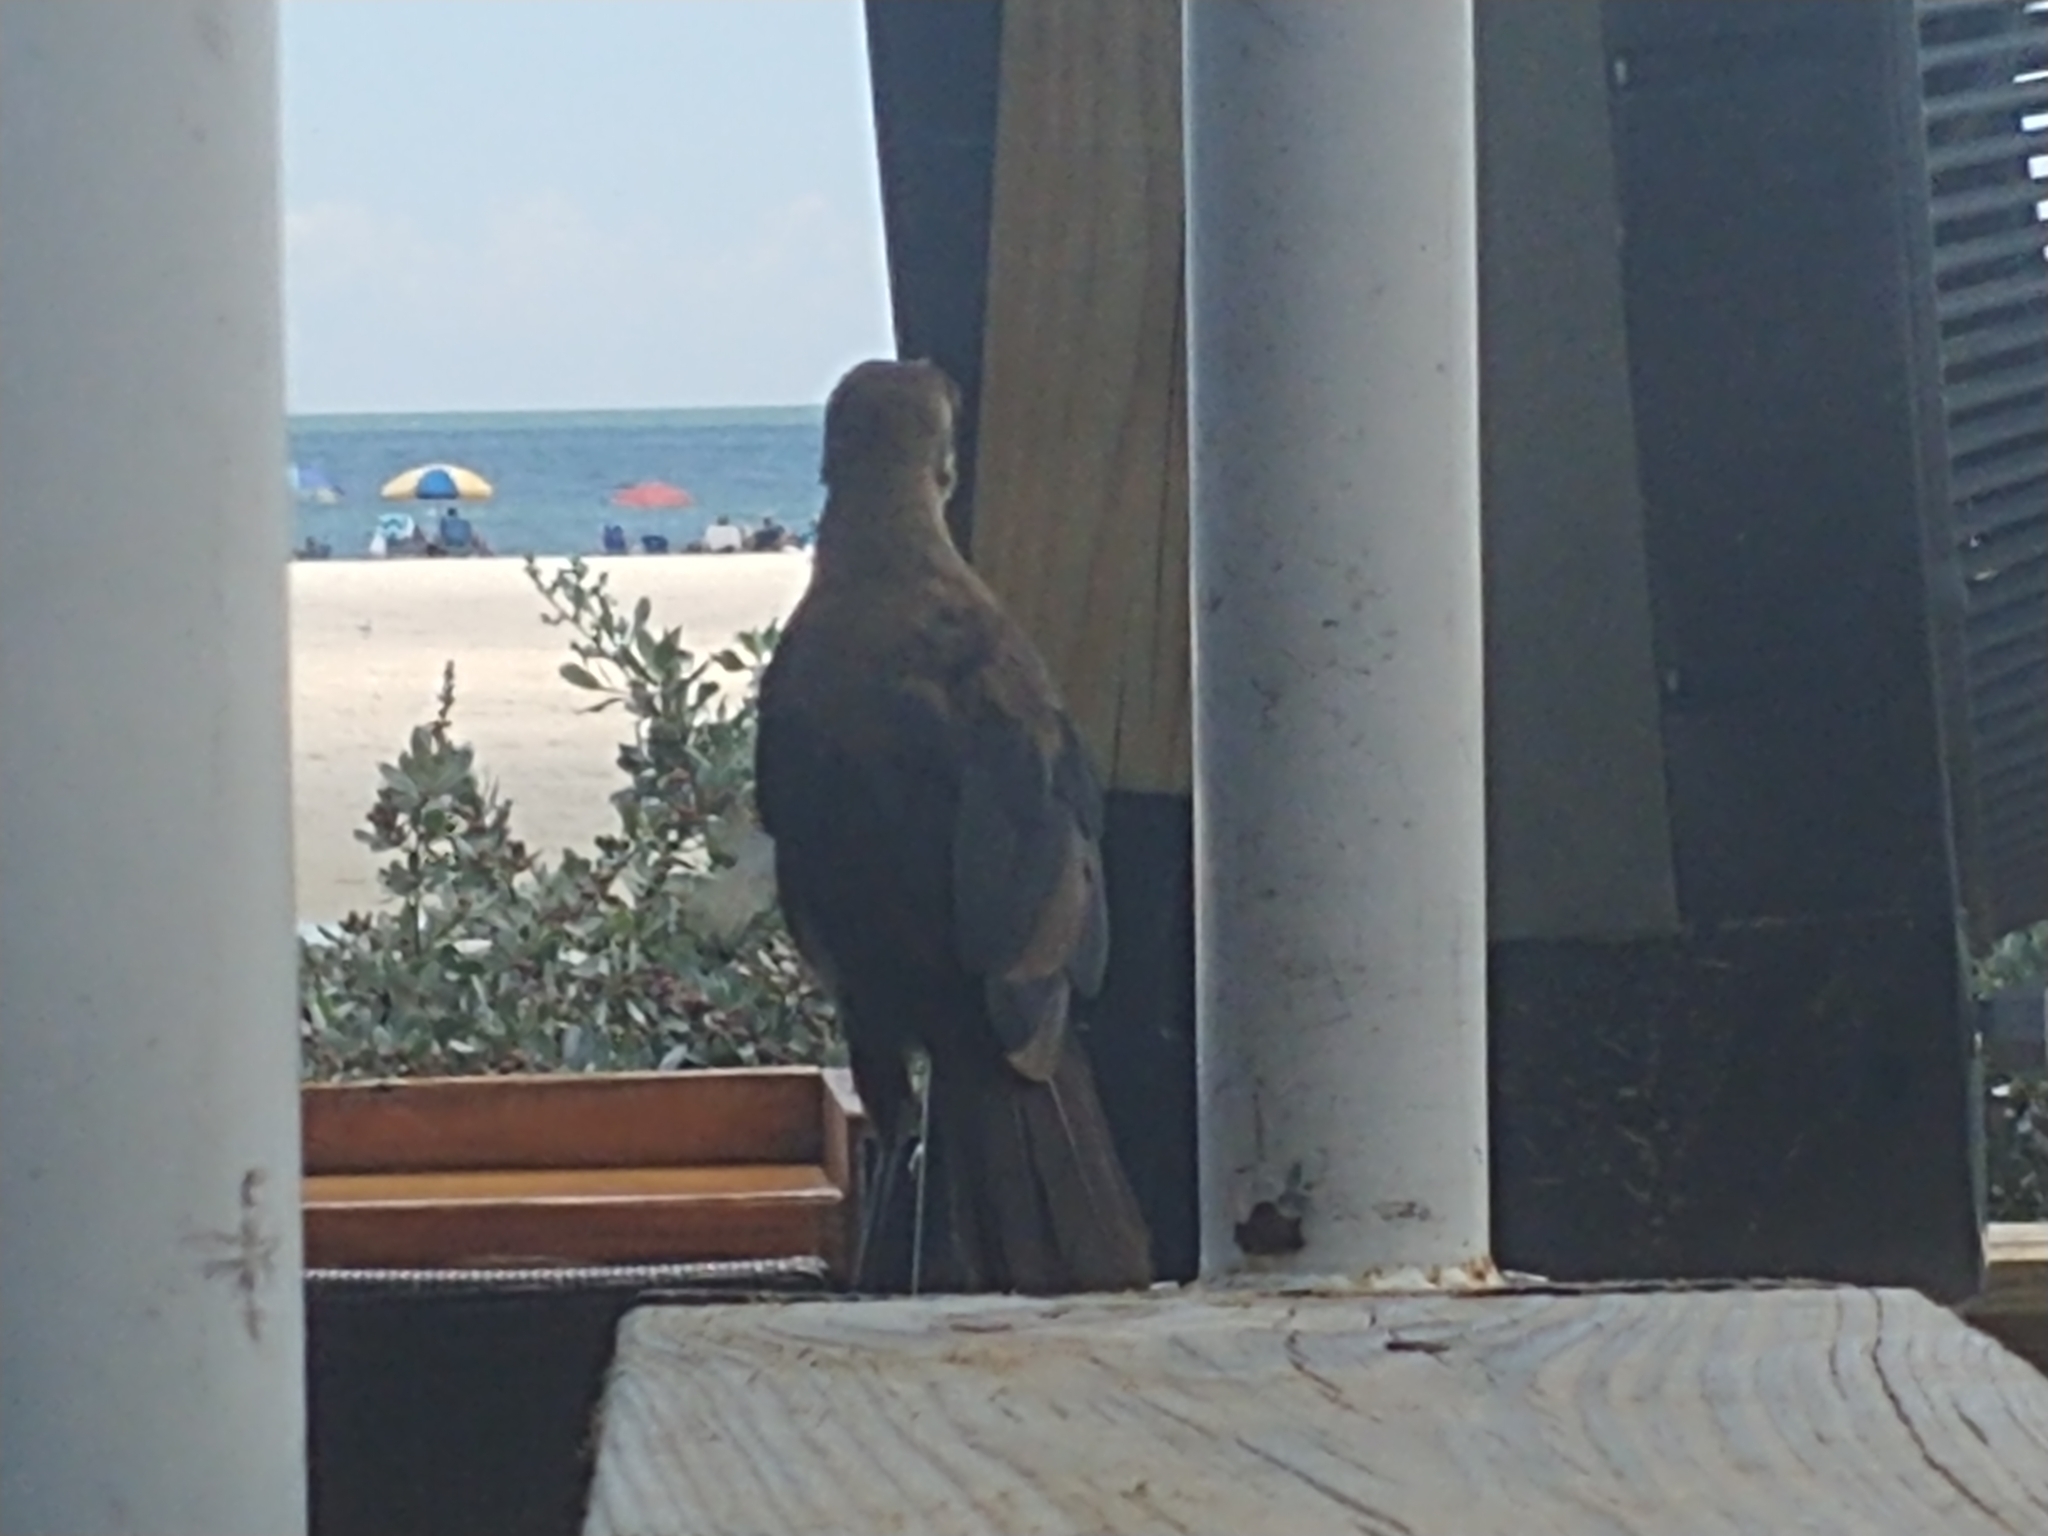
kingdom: Animalia
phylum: Chordata
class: Aves
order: Passeriformes
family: Icteridae
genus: Quiscalus
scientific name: Quiscalus major
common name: Boat-tailed grackle
